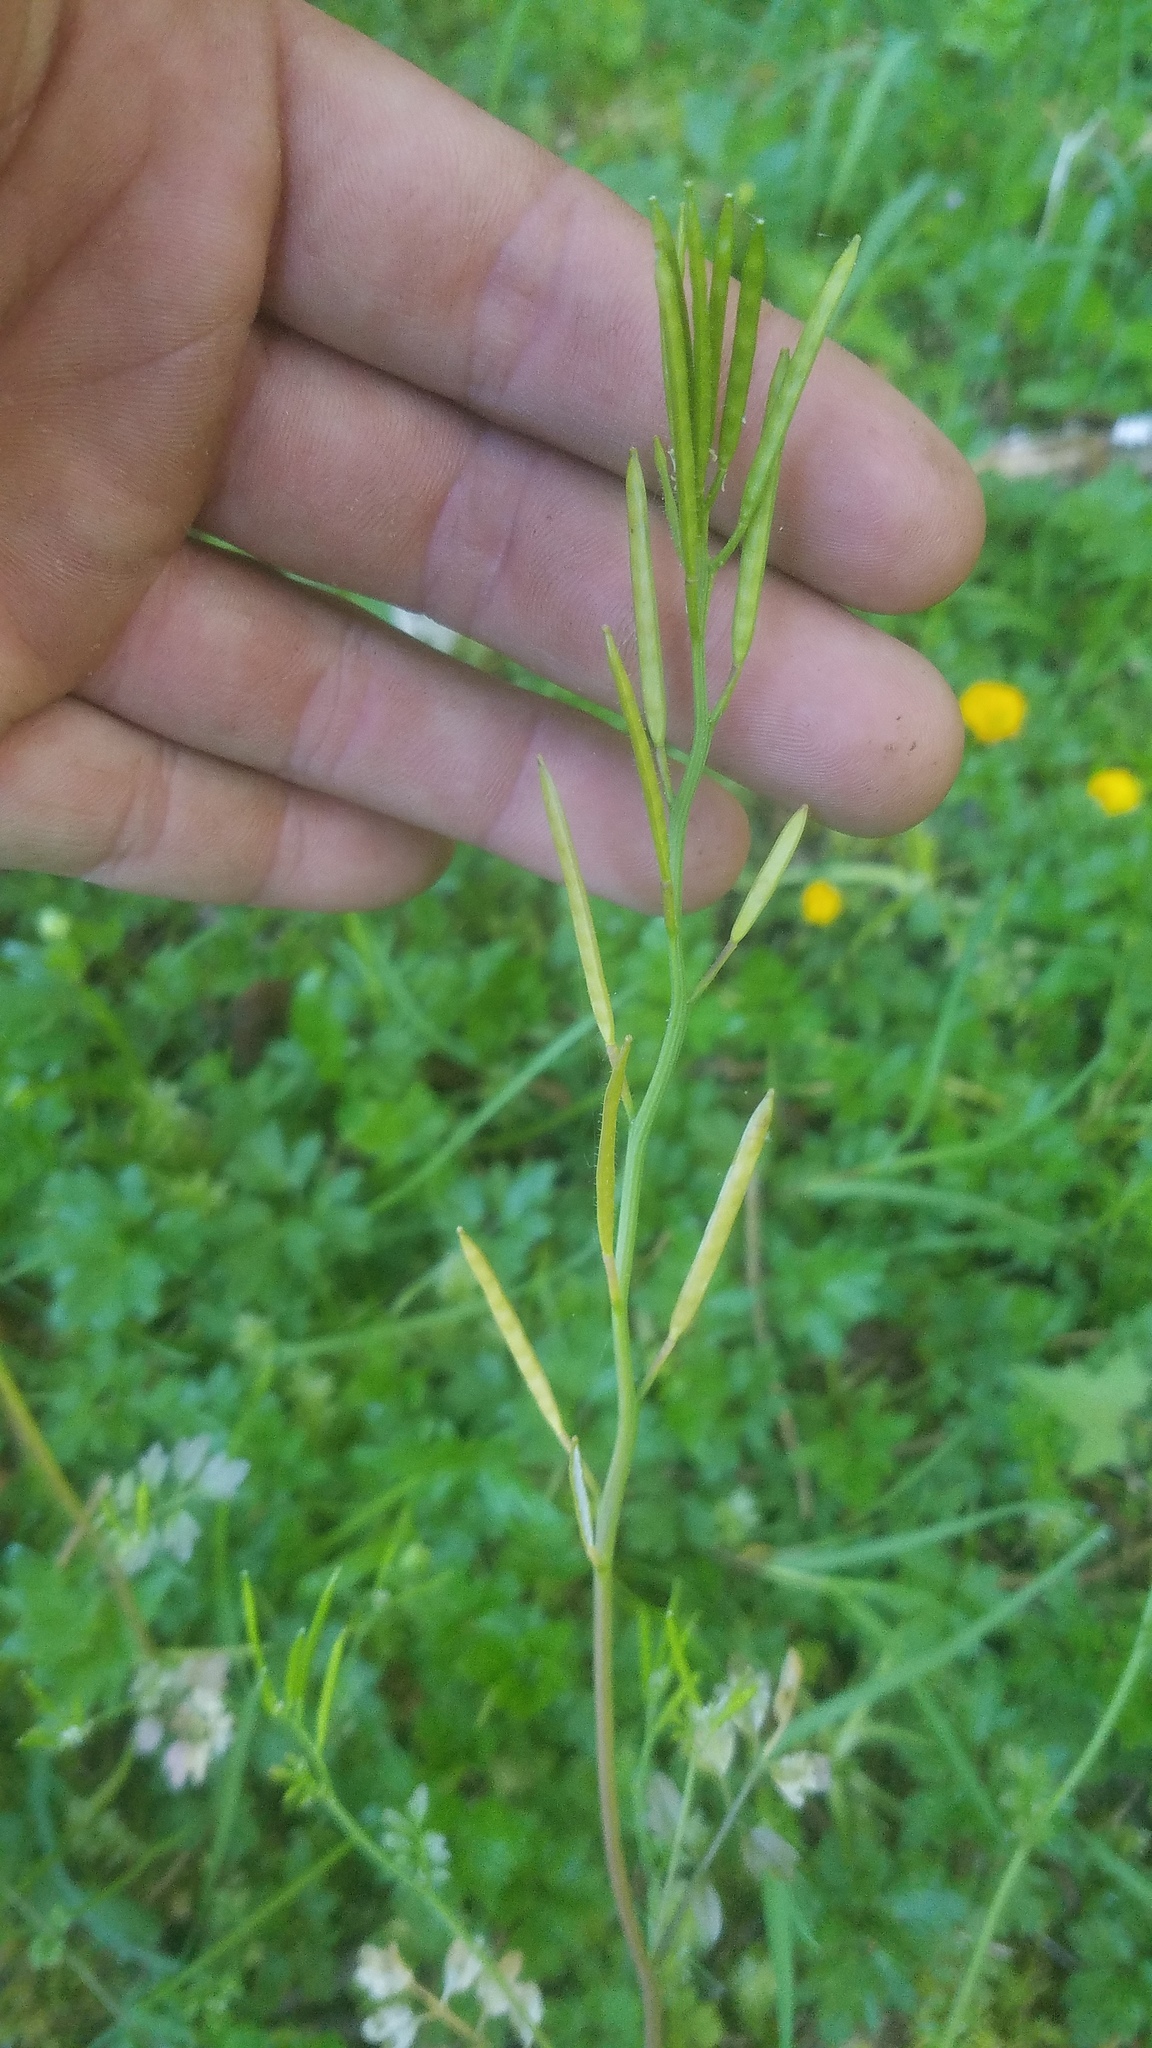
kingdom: Plantae
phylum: Tracheophyta
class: Magnoliopsida
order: Brassicales
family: Brassicaceae
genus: Cardamine
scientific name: Cardamine oligosperma
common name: Idaho bittercress
